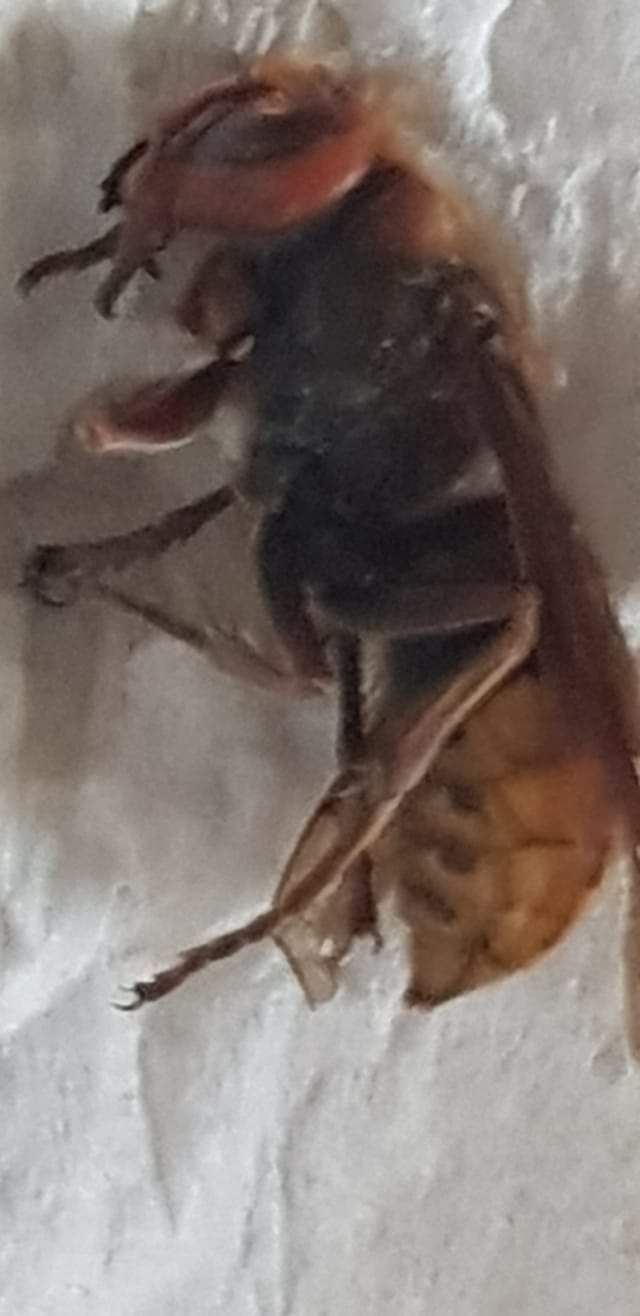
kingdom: Animalia
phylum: Arthropoda
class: Insecta
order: Hymenoptera
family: Vespidae
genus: Vespa
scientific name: Vespa crabro
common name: Hornet
